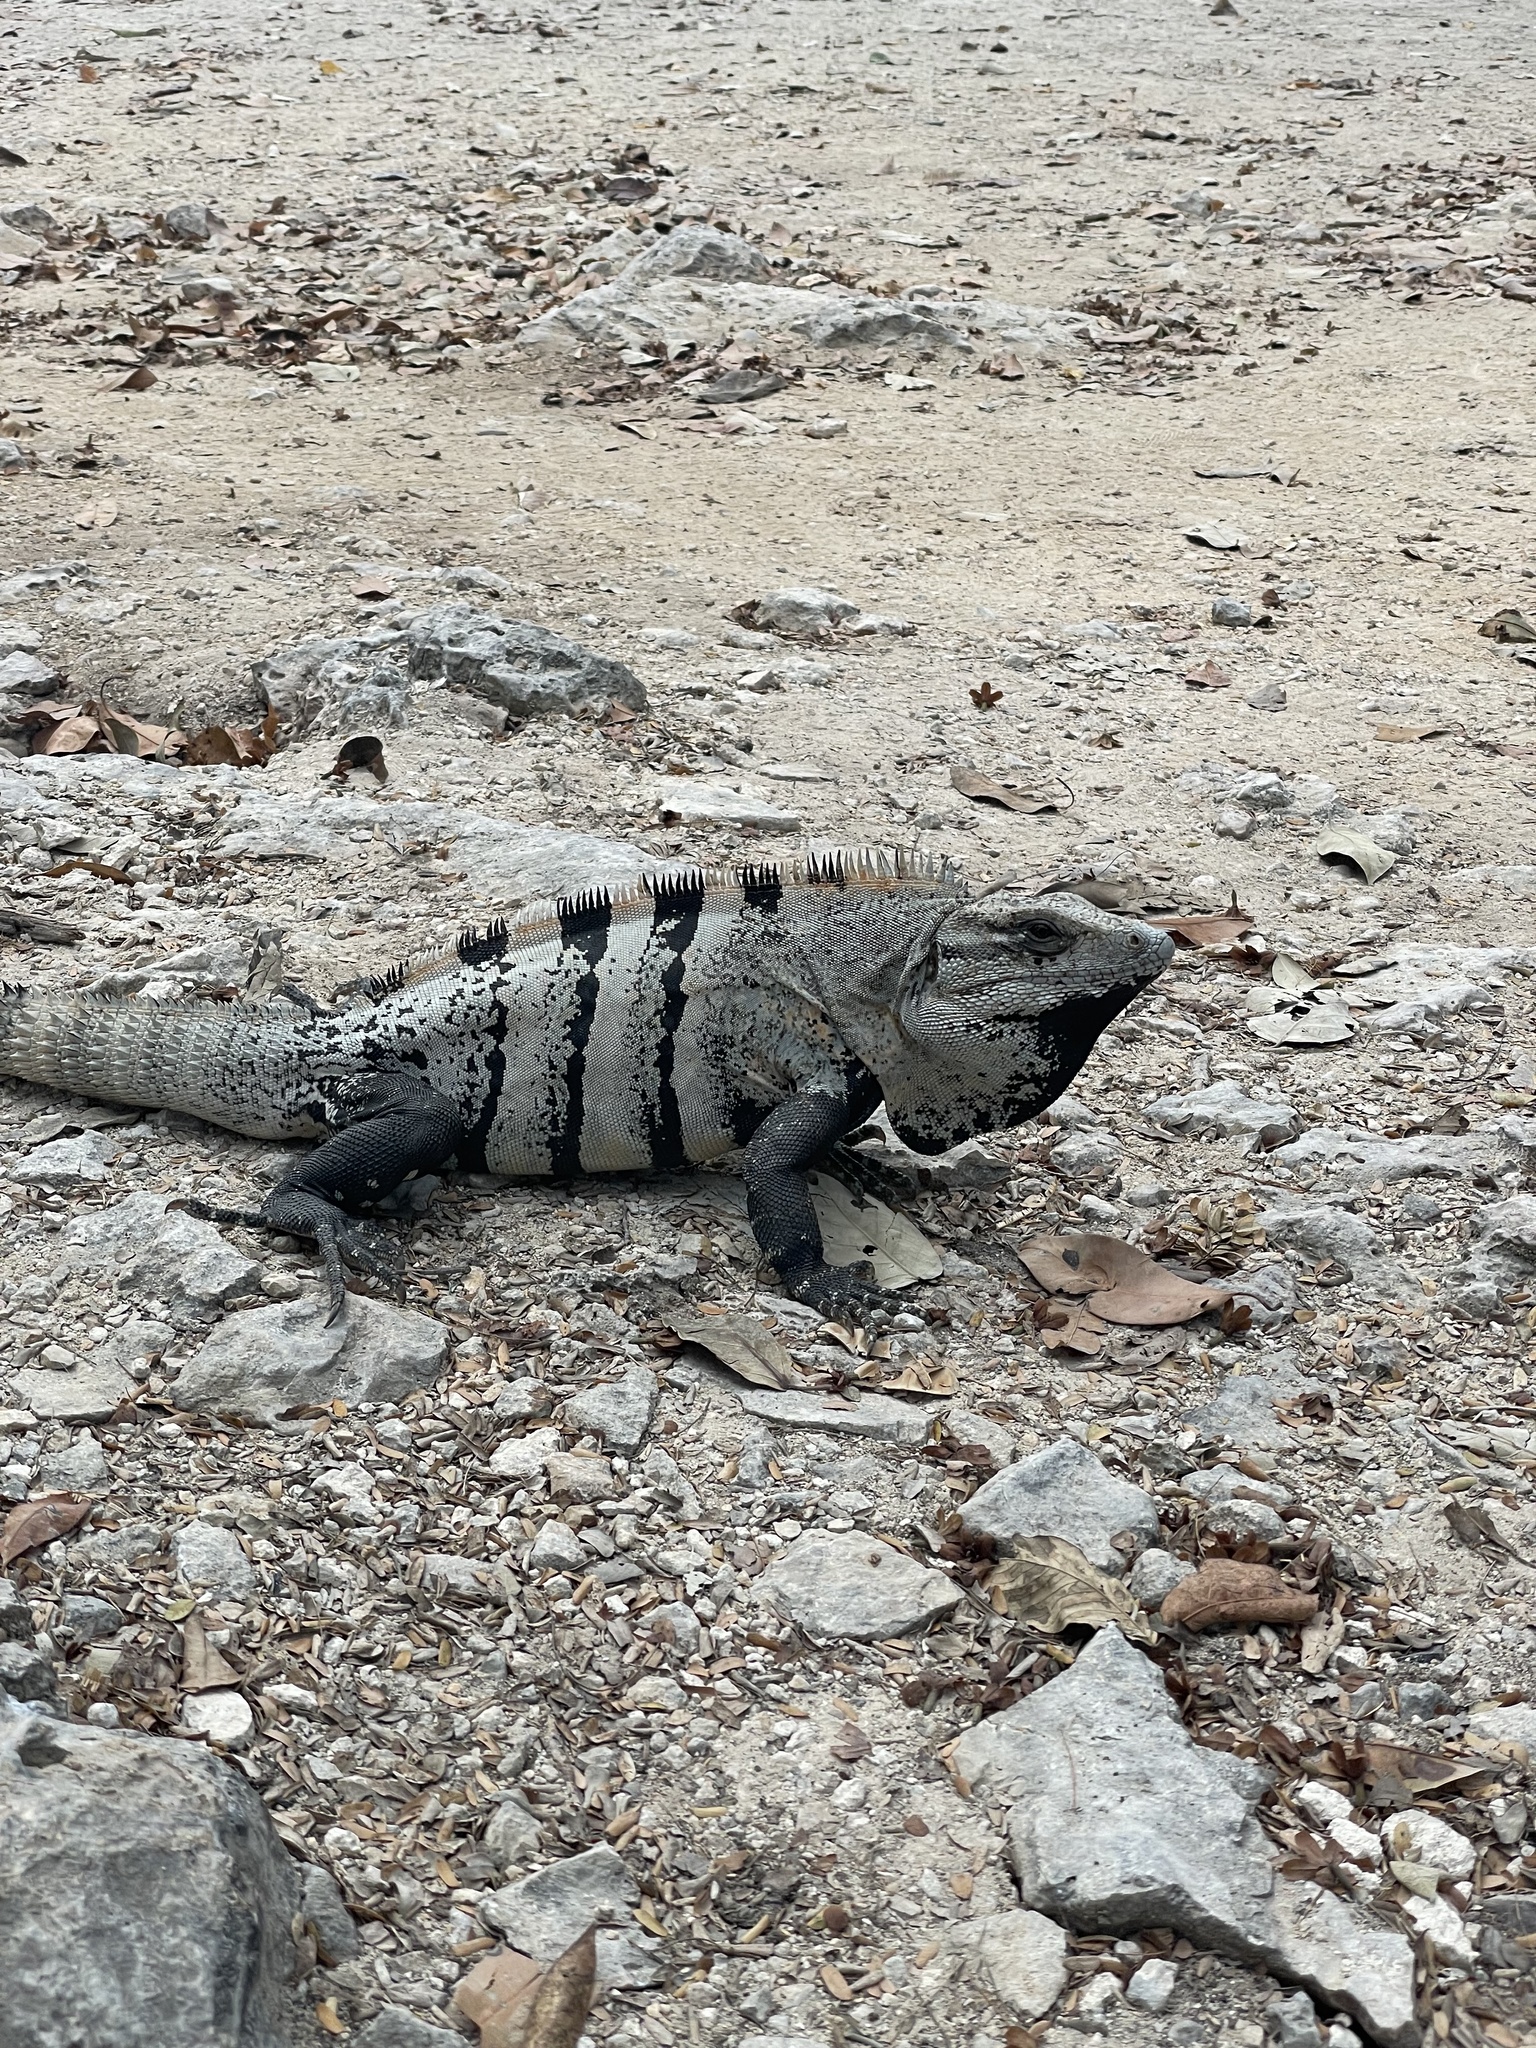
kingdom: Animalia
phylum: Chordata
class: Squamata
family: Iguanidae
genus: Ctenosaura
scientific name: Ctenosaura similis
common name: Black spiny-tailed iguana
